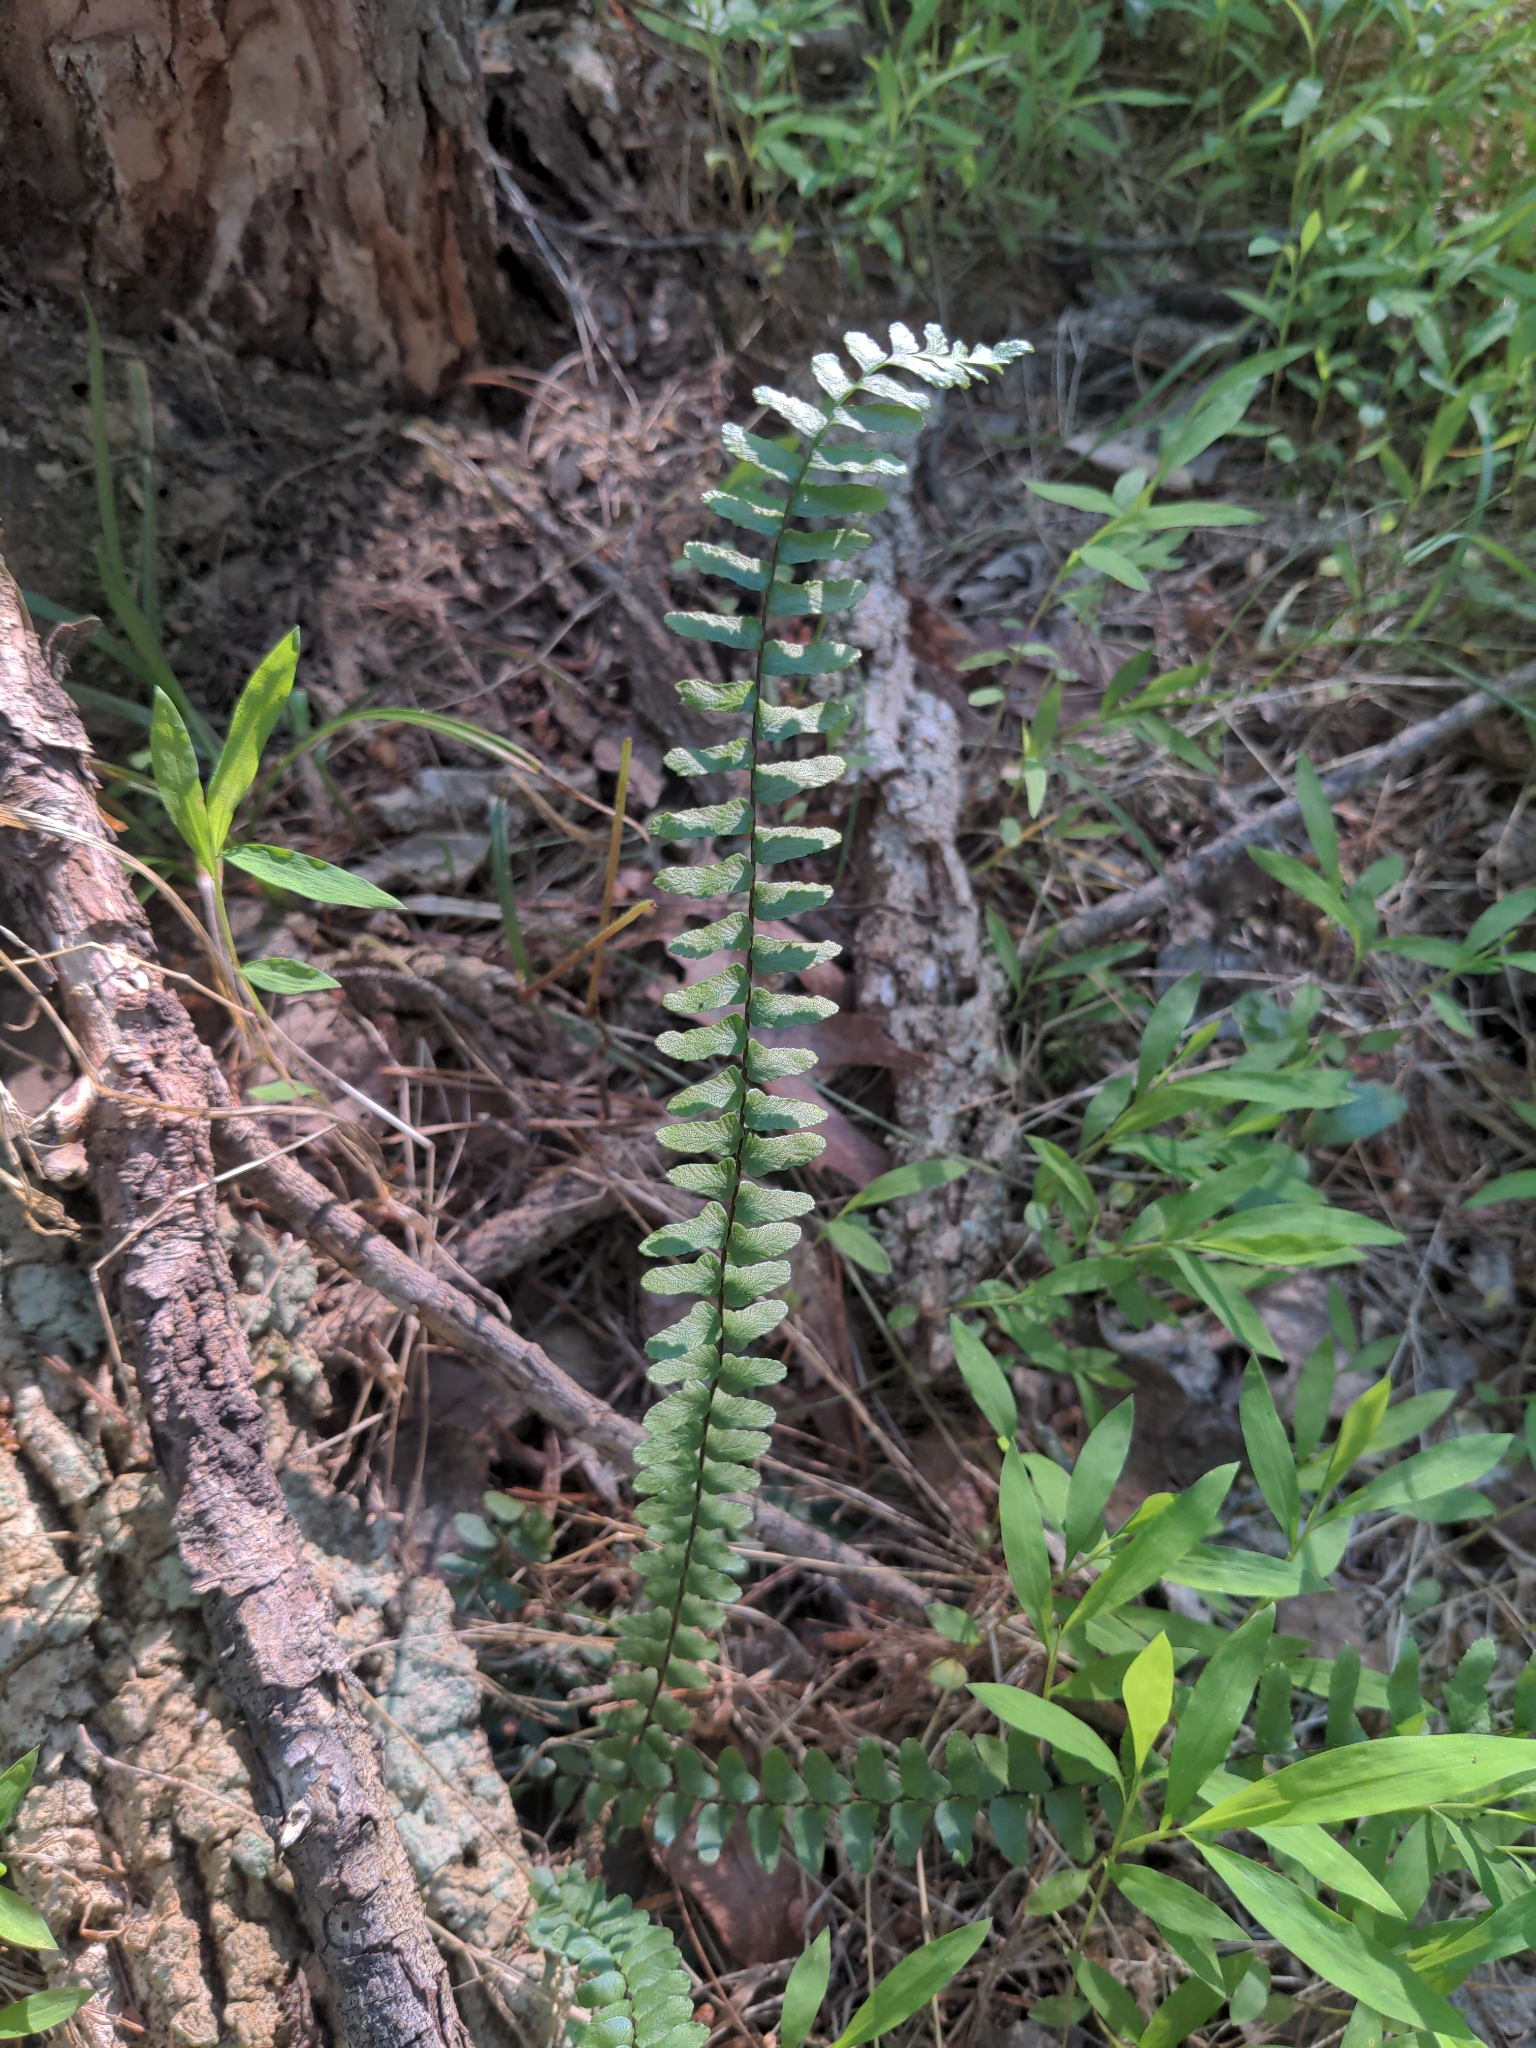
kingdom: Plantae
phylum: Tracheophyta
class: Polypodiopsida
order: Polypodiales
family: Aspleniaceae
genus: Asplenium
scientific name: Asplenium platyneuron
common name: Ebony spleenwort
